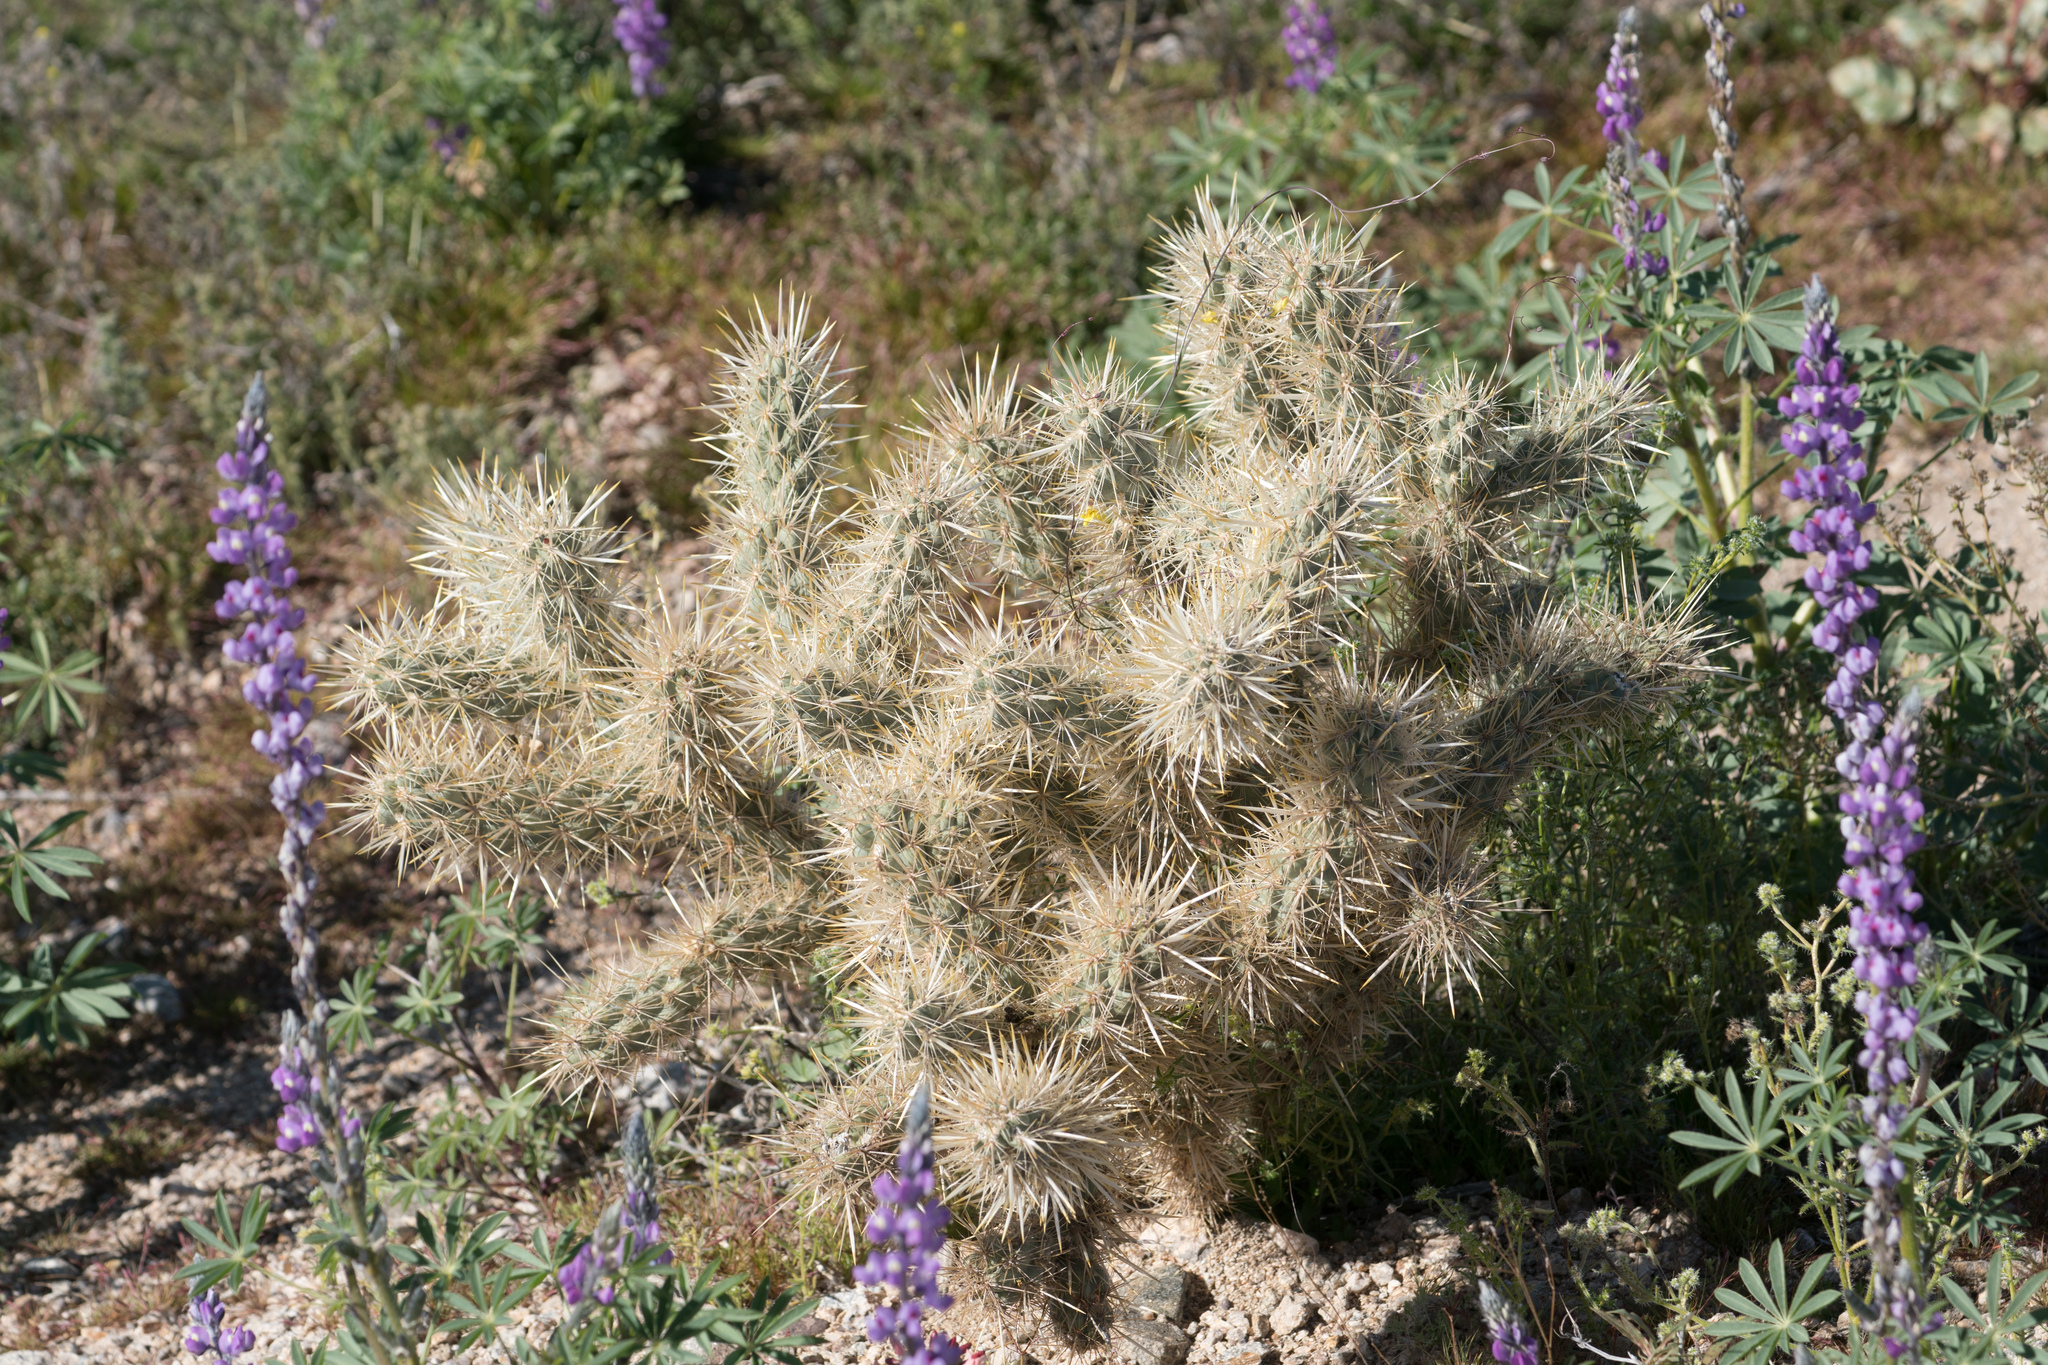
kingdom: Plantae
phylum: Tracheophyta
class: Magnoliopsida
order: Caryophyllales
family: Cactaceae
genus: Cylindropuntia
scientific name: Cylindropuntia echinocarpa
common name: Ground cholla
